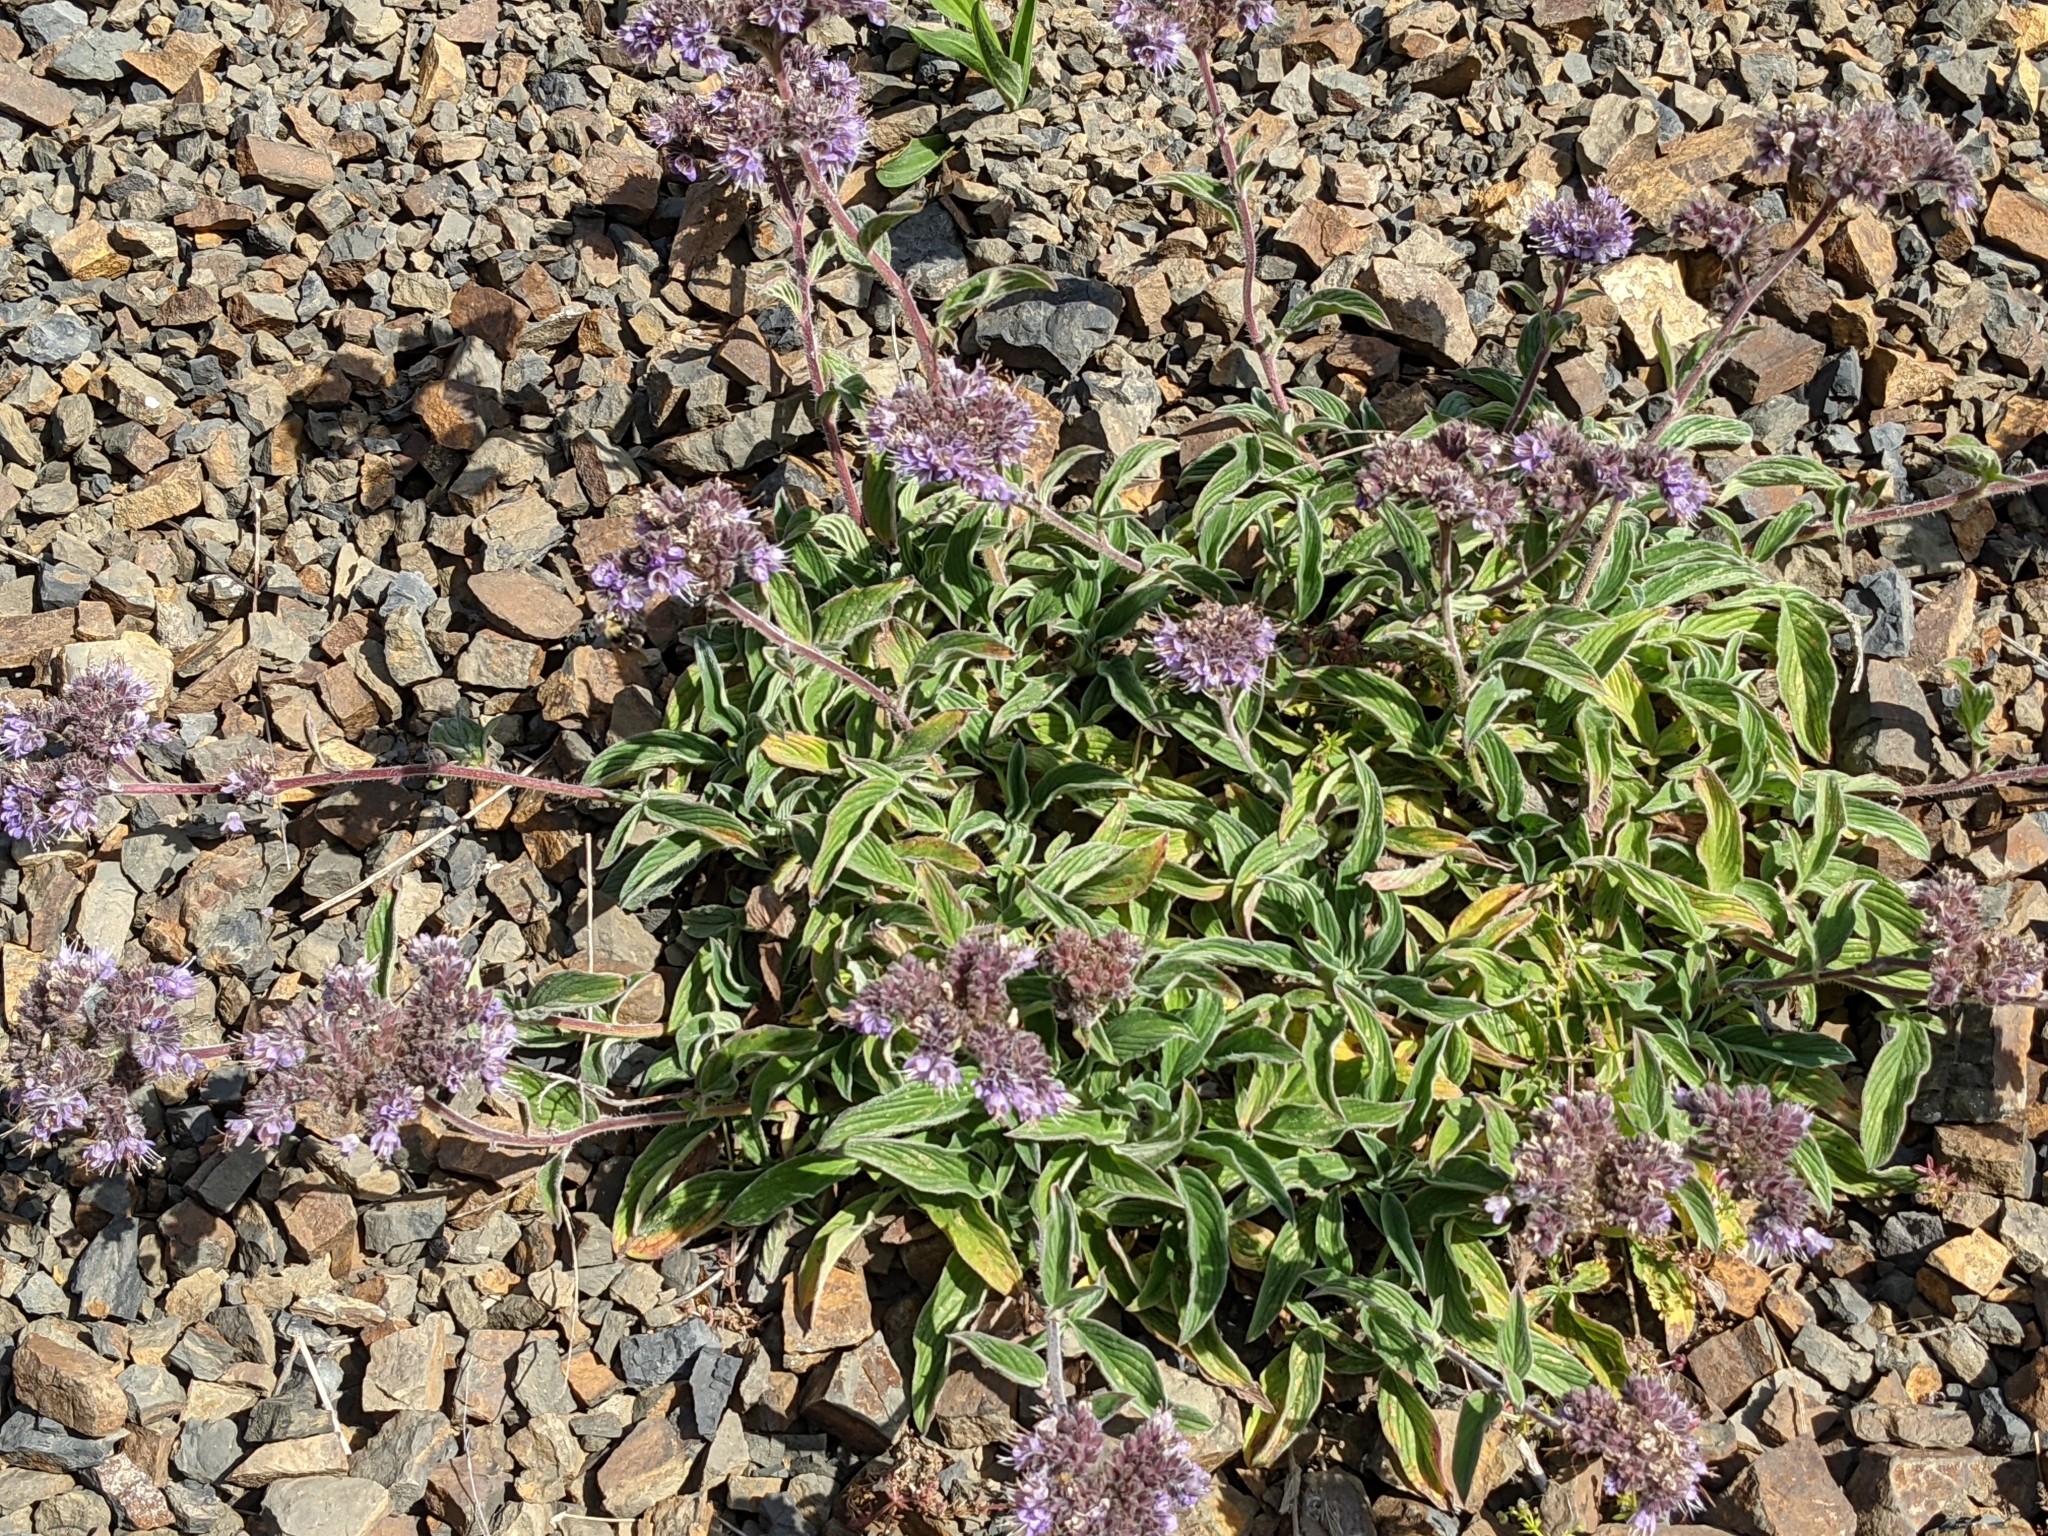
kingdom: Plantae
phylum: Tracheophyta
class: Magnoliopsida
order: Boraginales
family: Hydrophyllaceae
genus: Phacelia
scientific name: Phacelia californica
